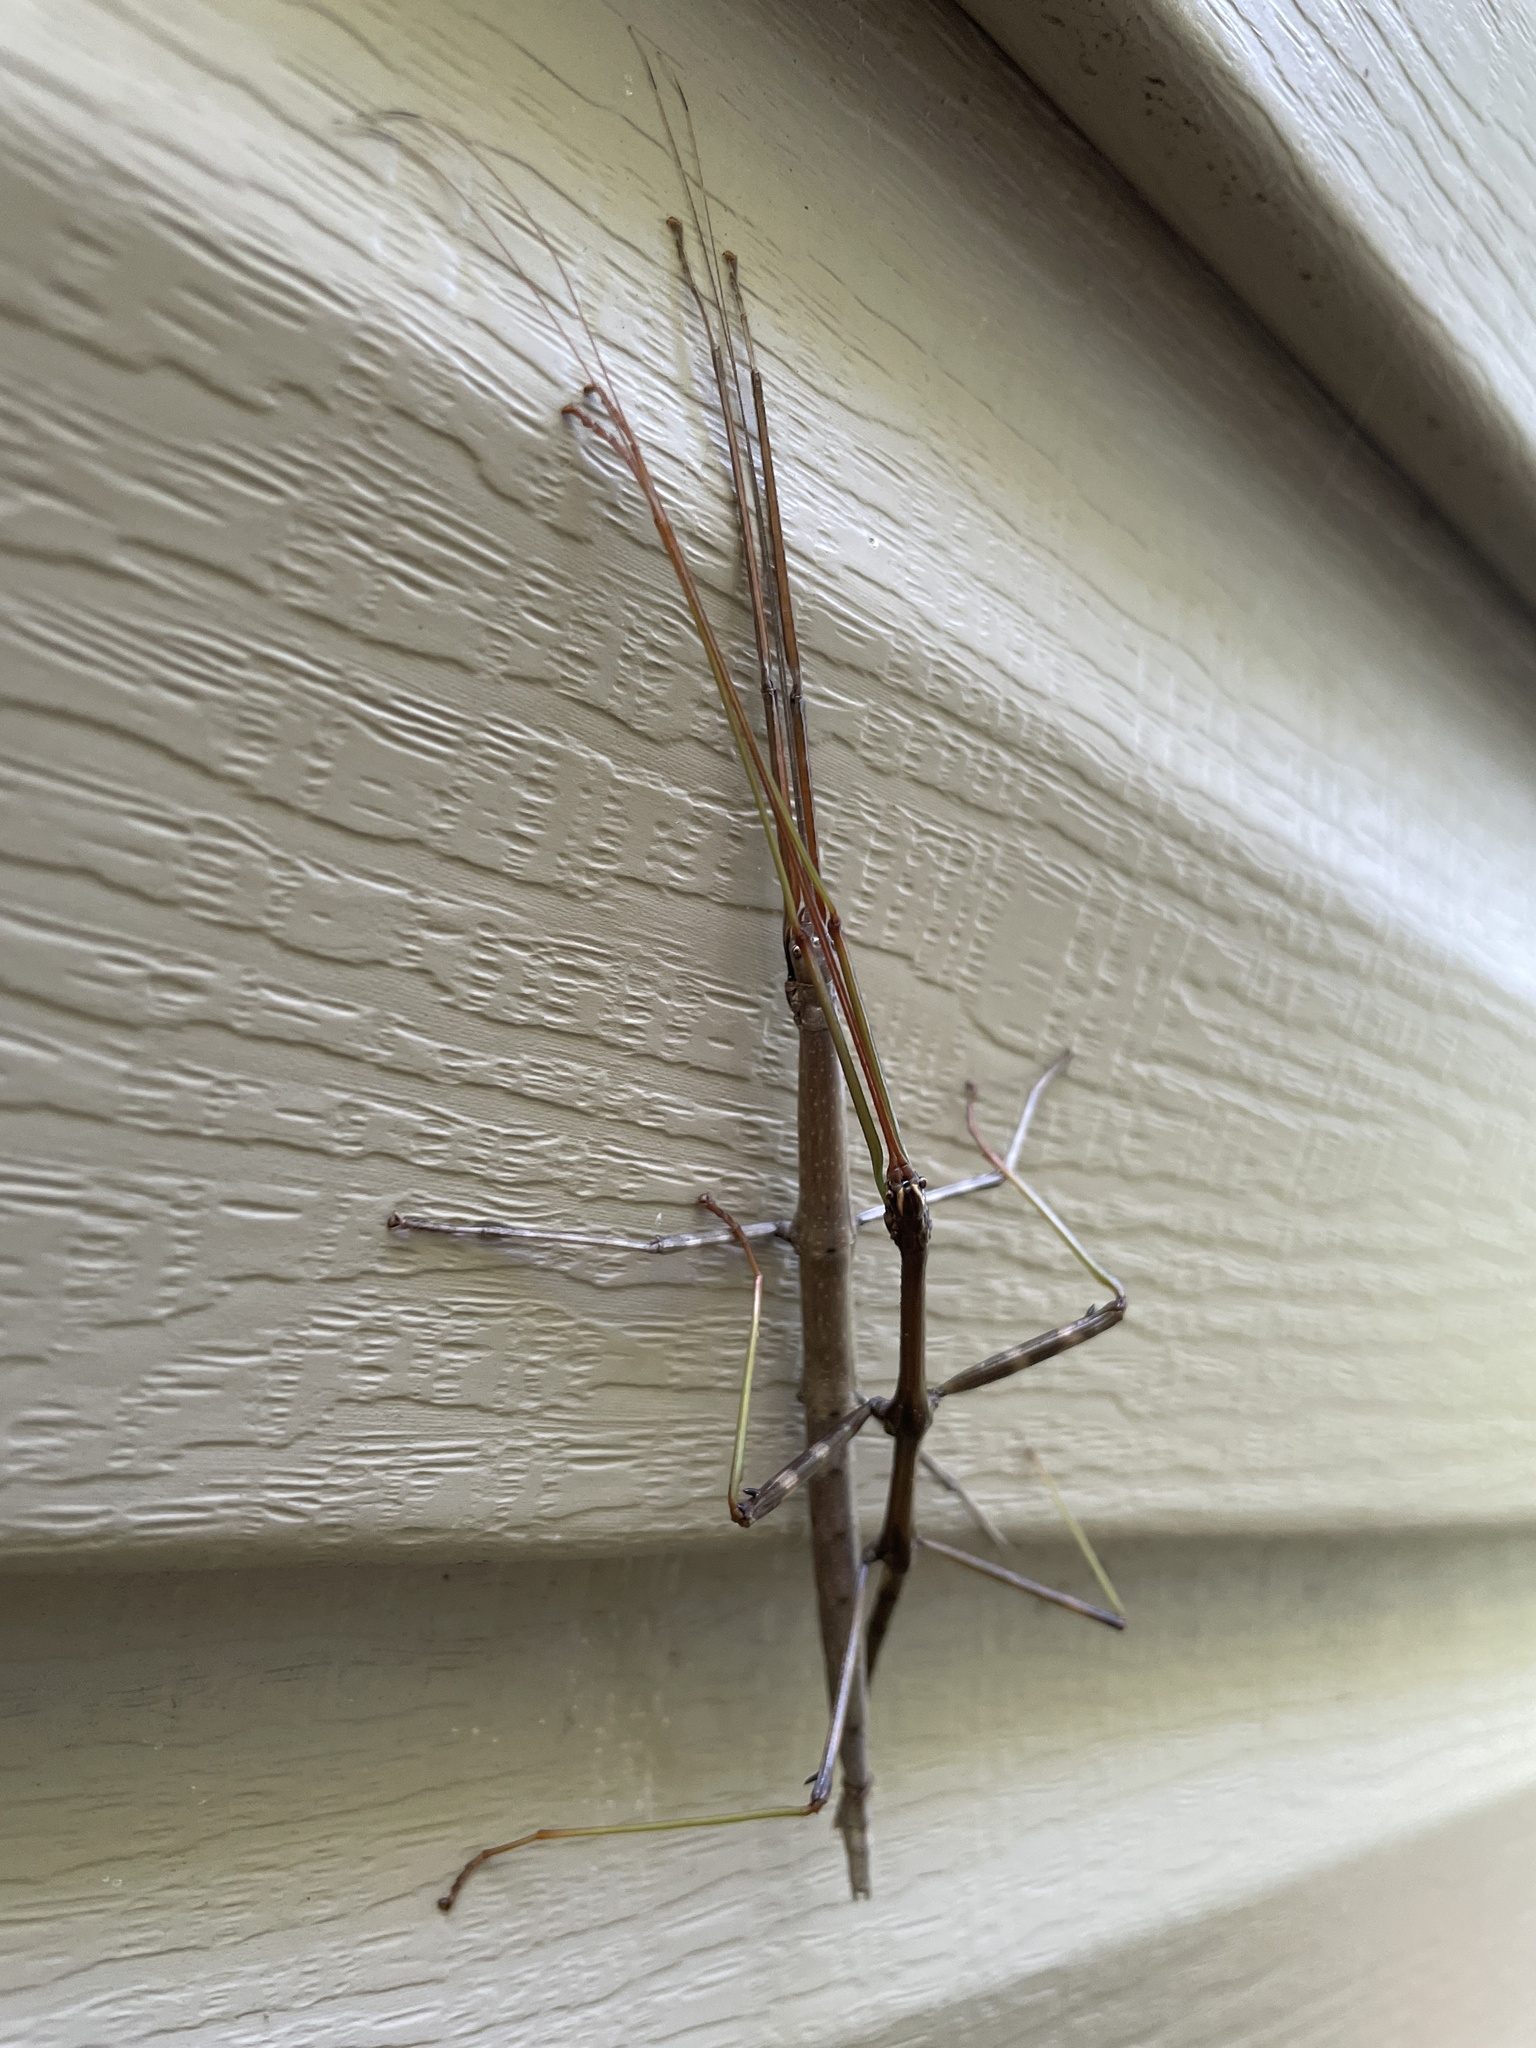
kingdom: Animalia
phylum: Arthropoda
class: Insecta
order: Phasmida
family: Diapheromeridae
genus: Diapheromera
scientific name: Diapheromera femorata
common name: Common american walkingstick
